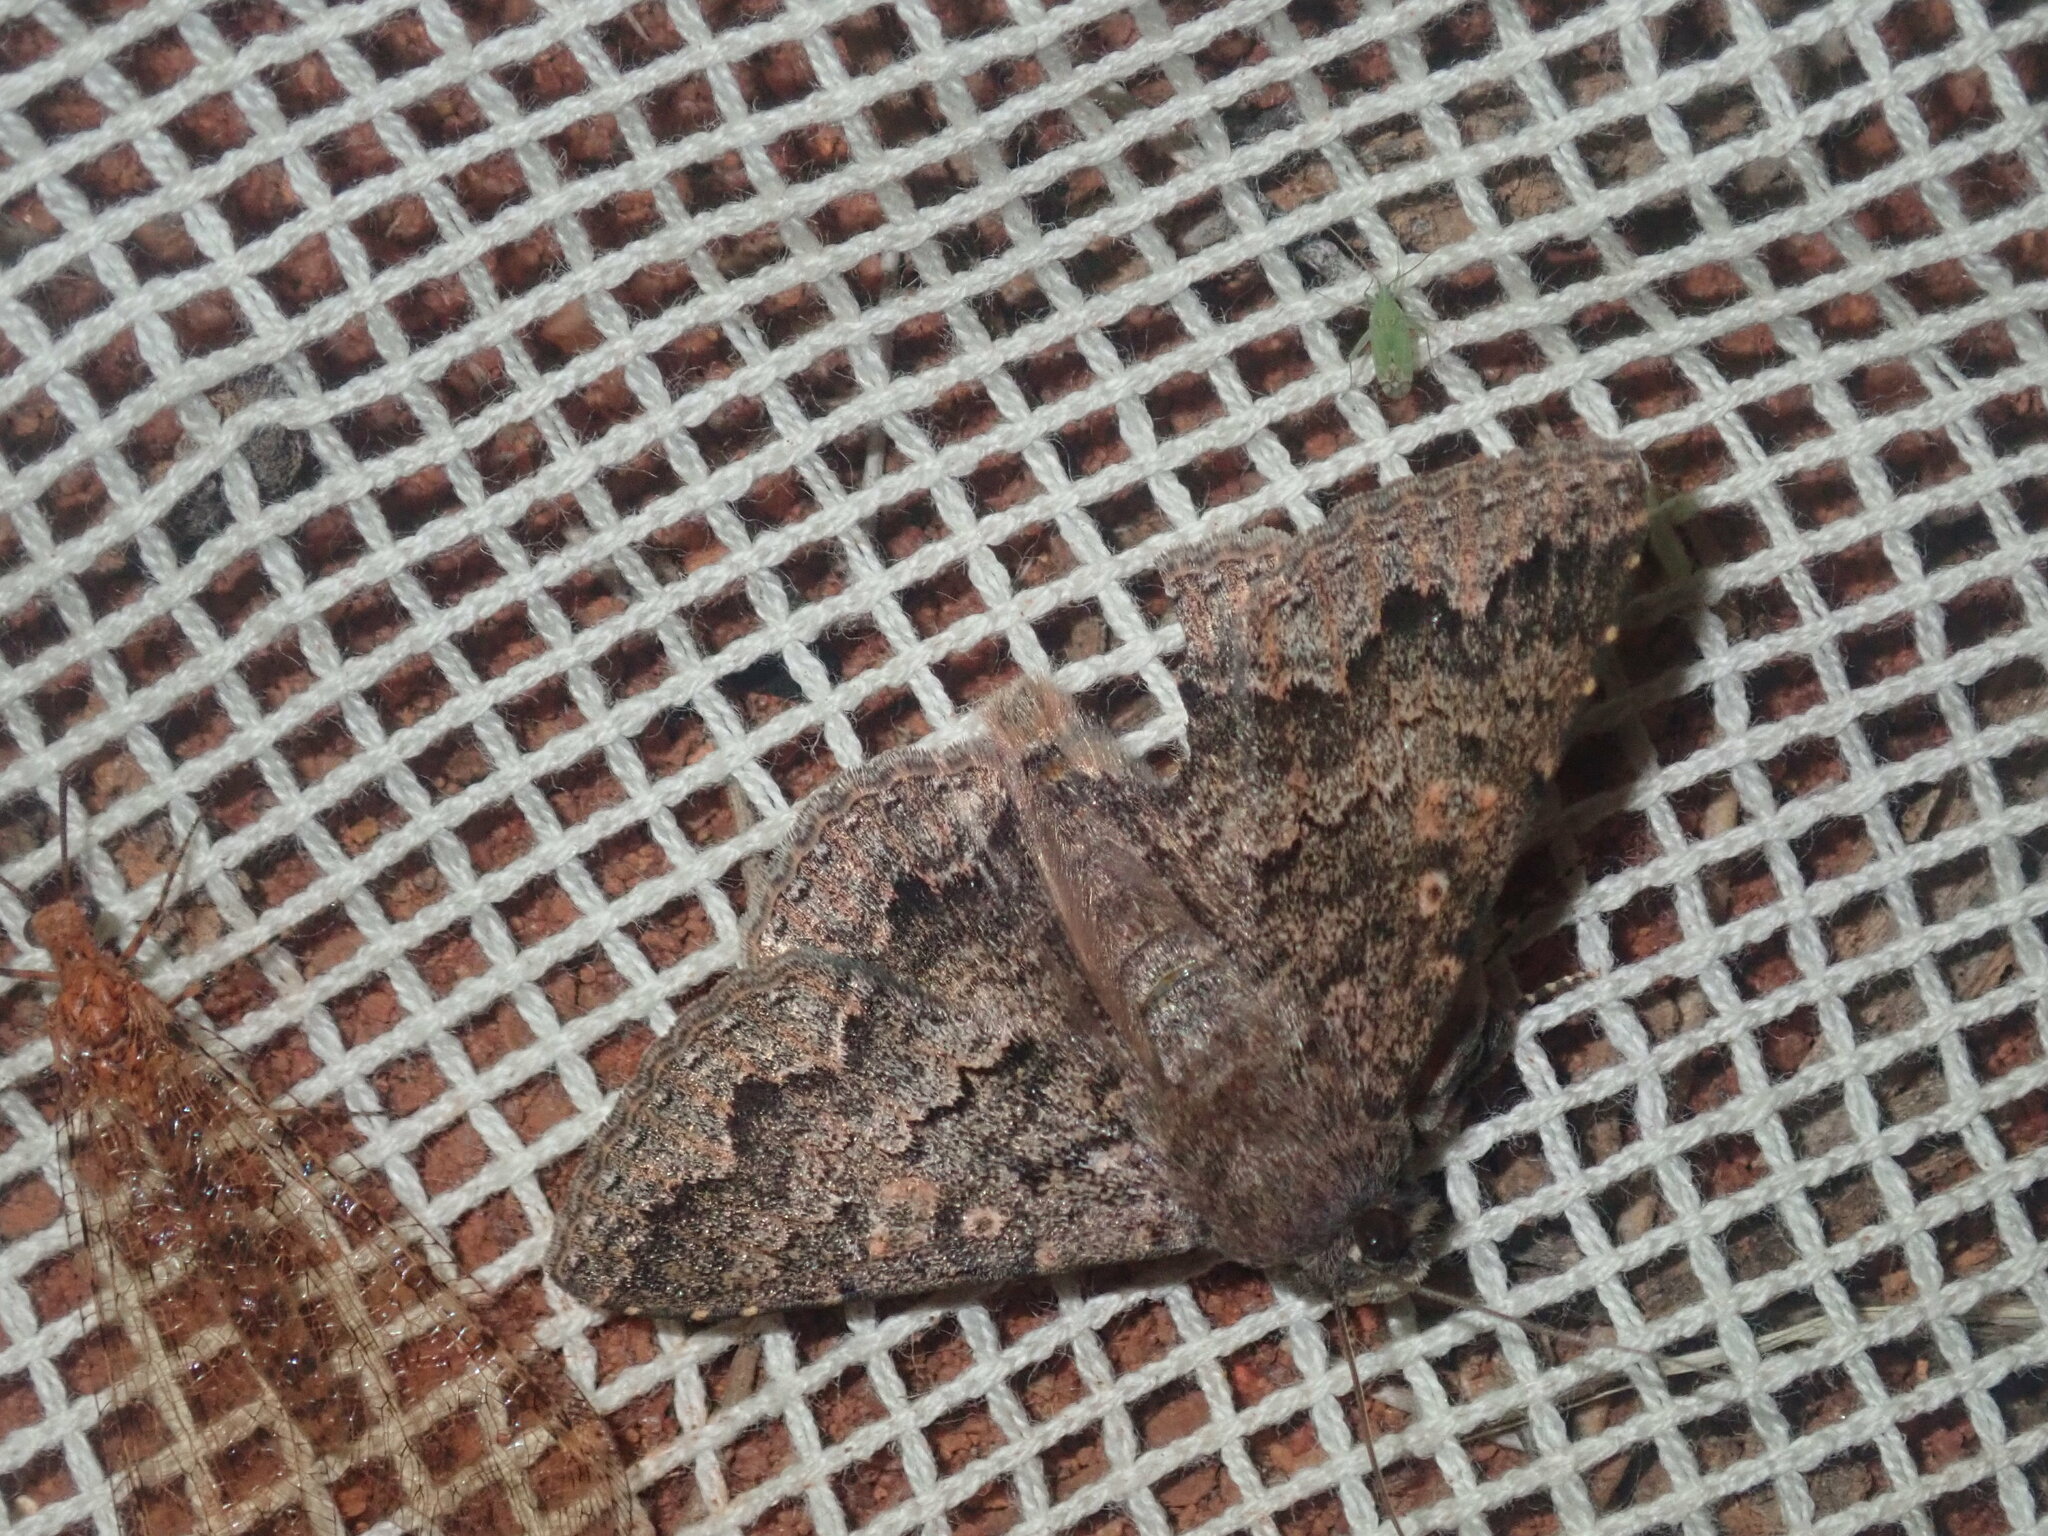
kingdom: Animalia
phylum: Arthropoda
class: Insecta
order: Lepidoptera
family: Erebidae
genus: Eudesmeola
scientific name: Eudesmeola lawsoni
